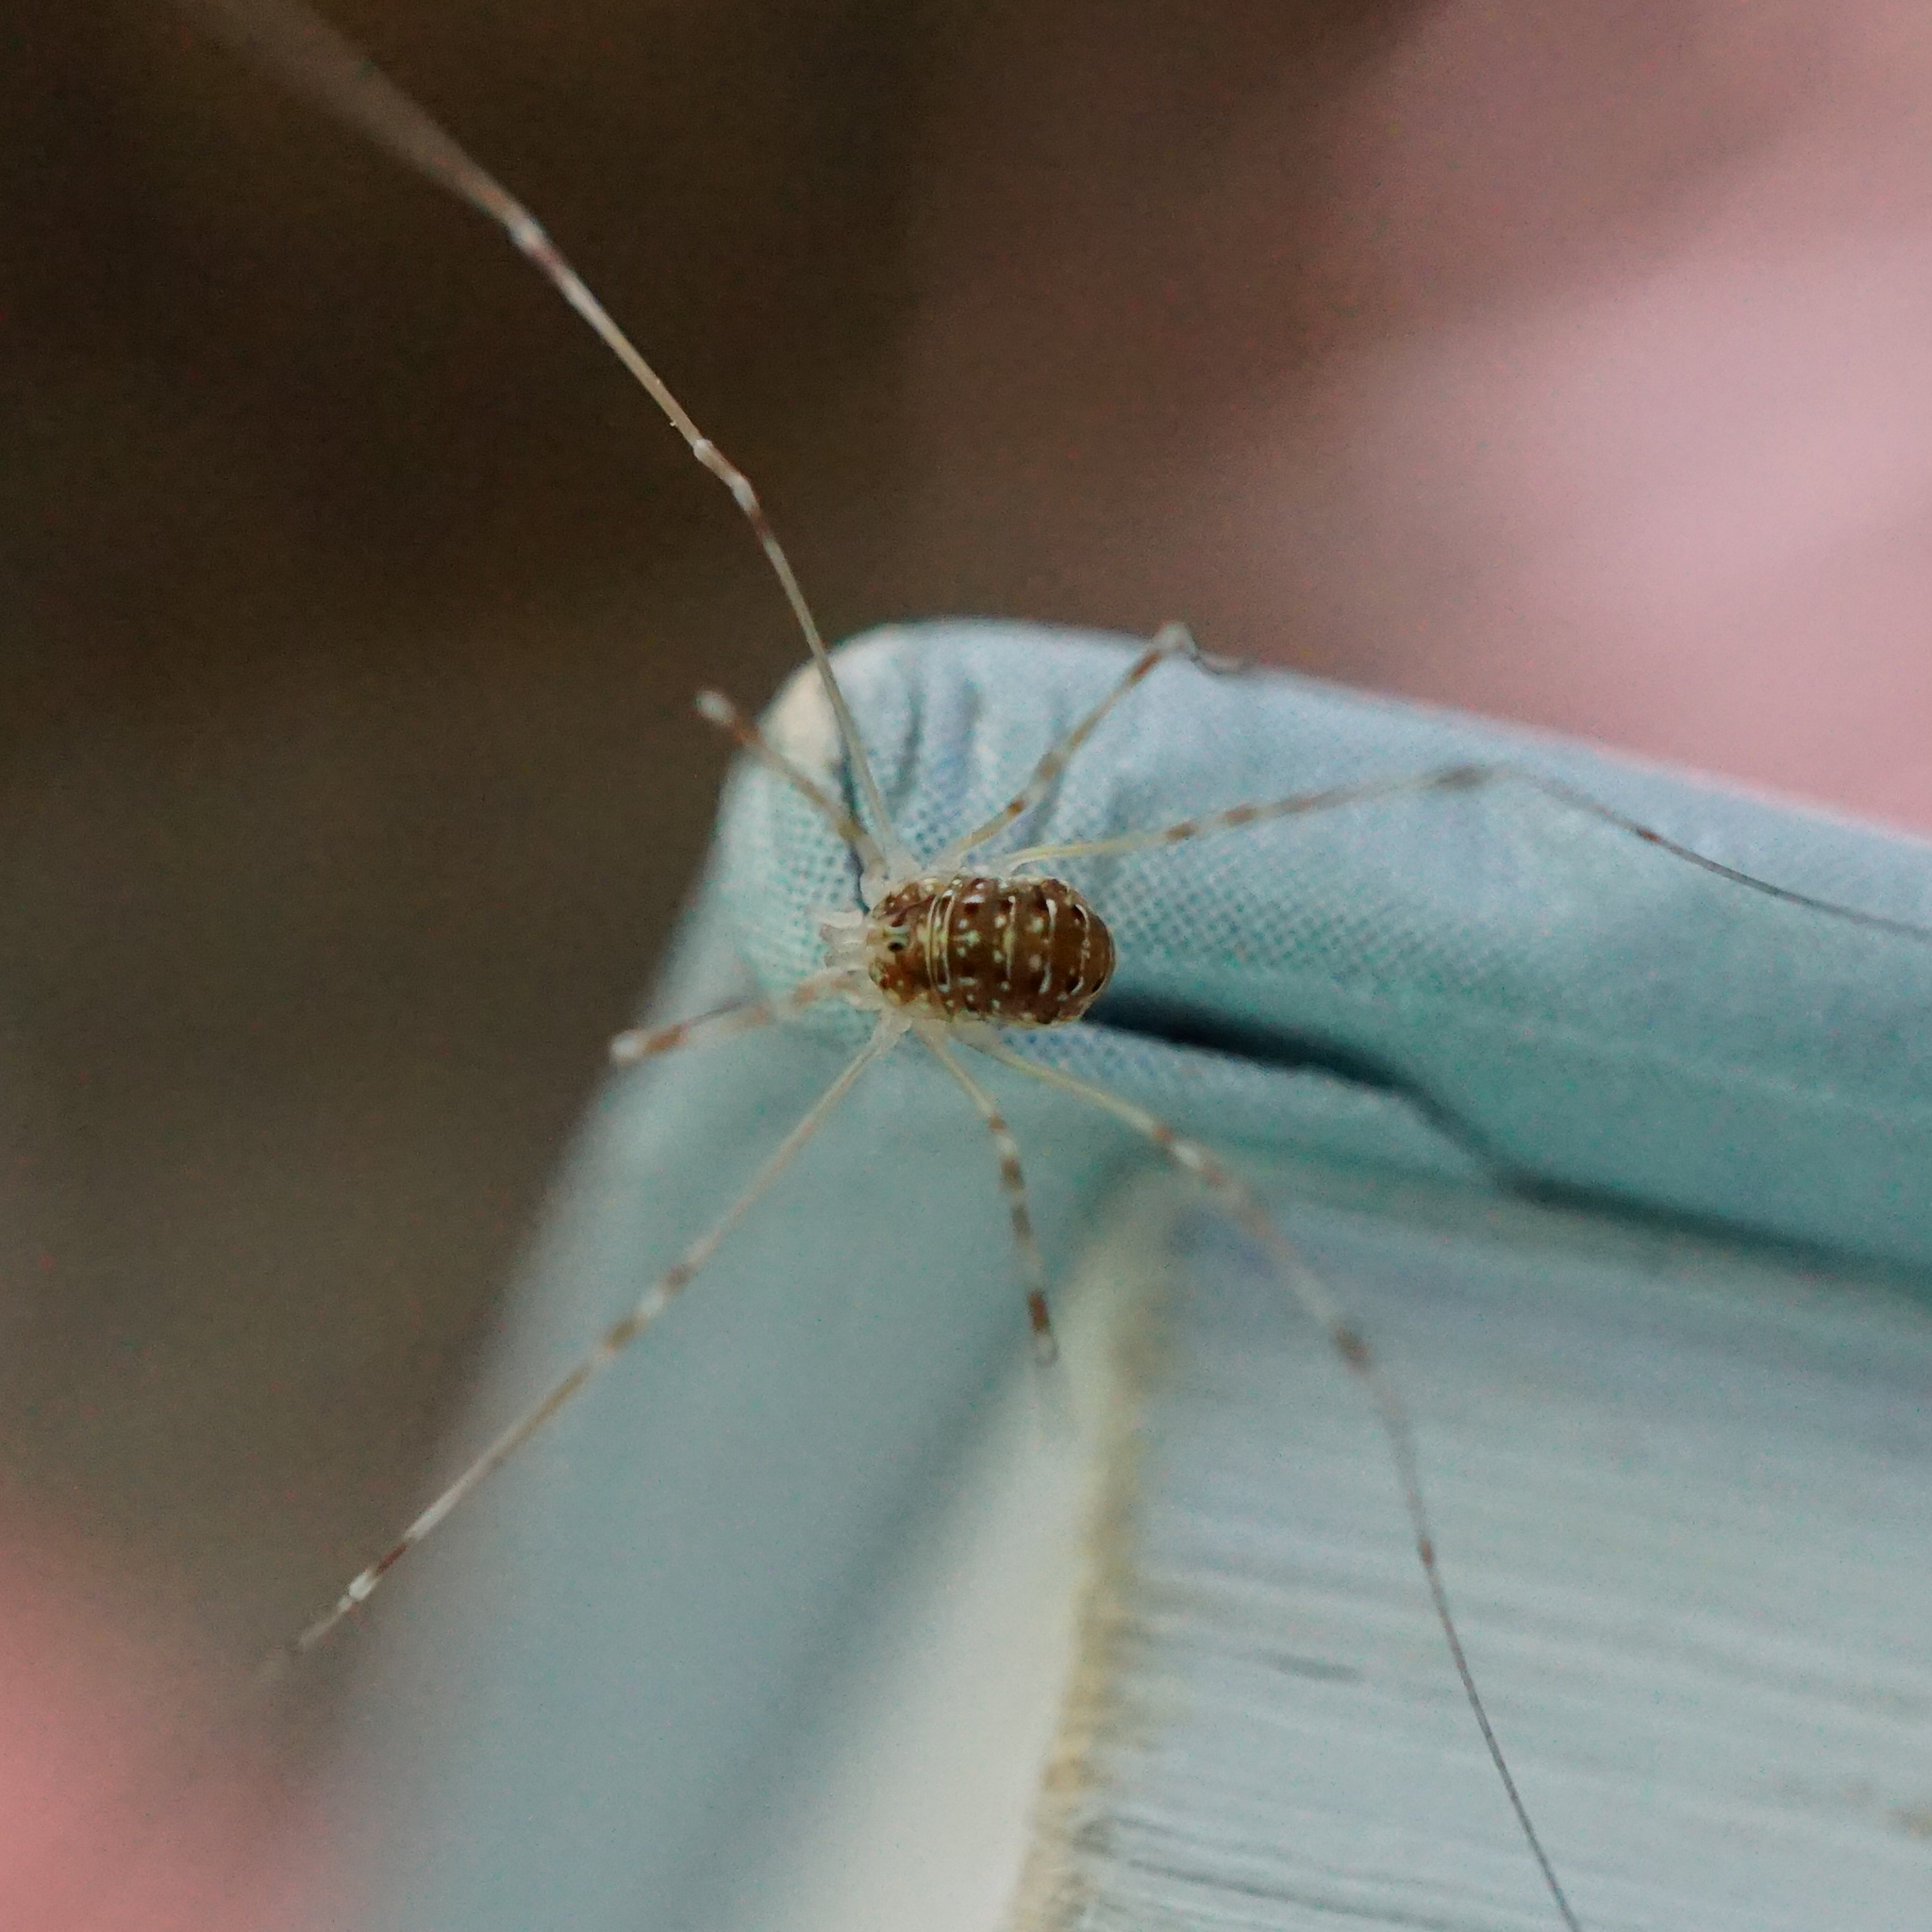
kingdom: Animalia
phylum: Arthropoda
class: Arachnida
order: Opiliones
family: Phalangiidae
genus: Opilio
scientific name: Opilio canestrinii
